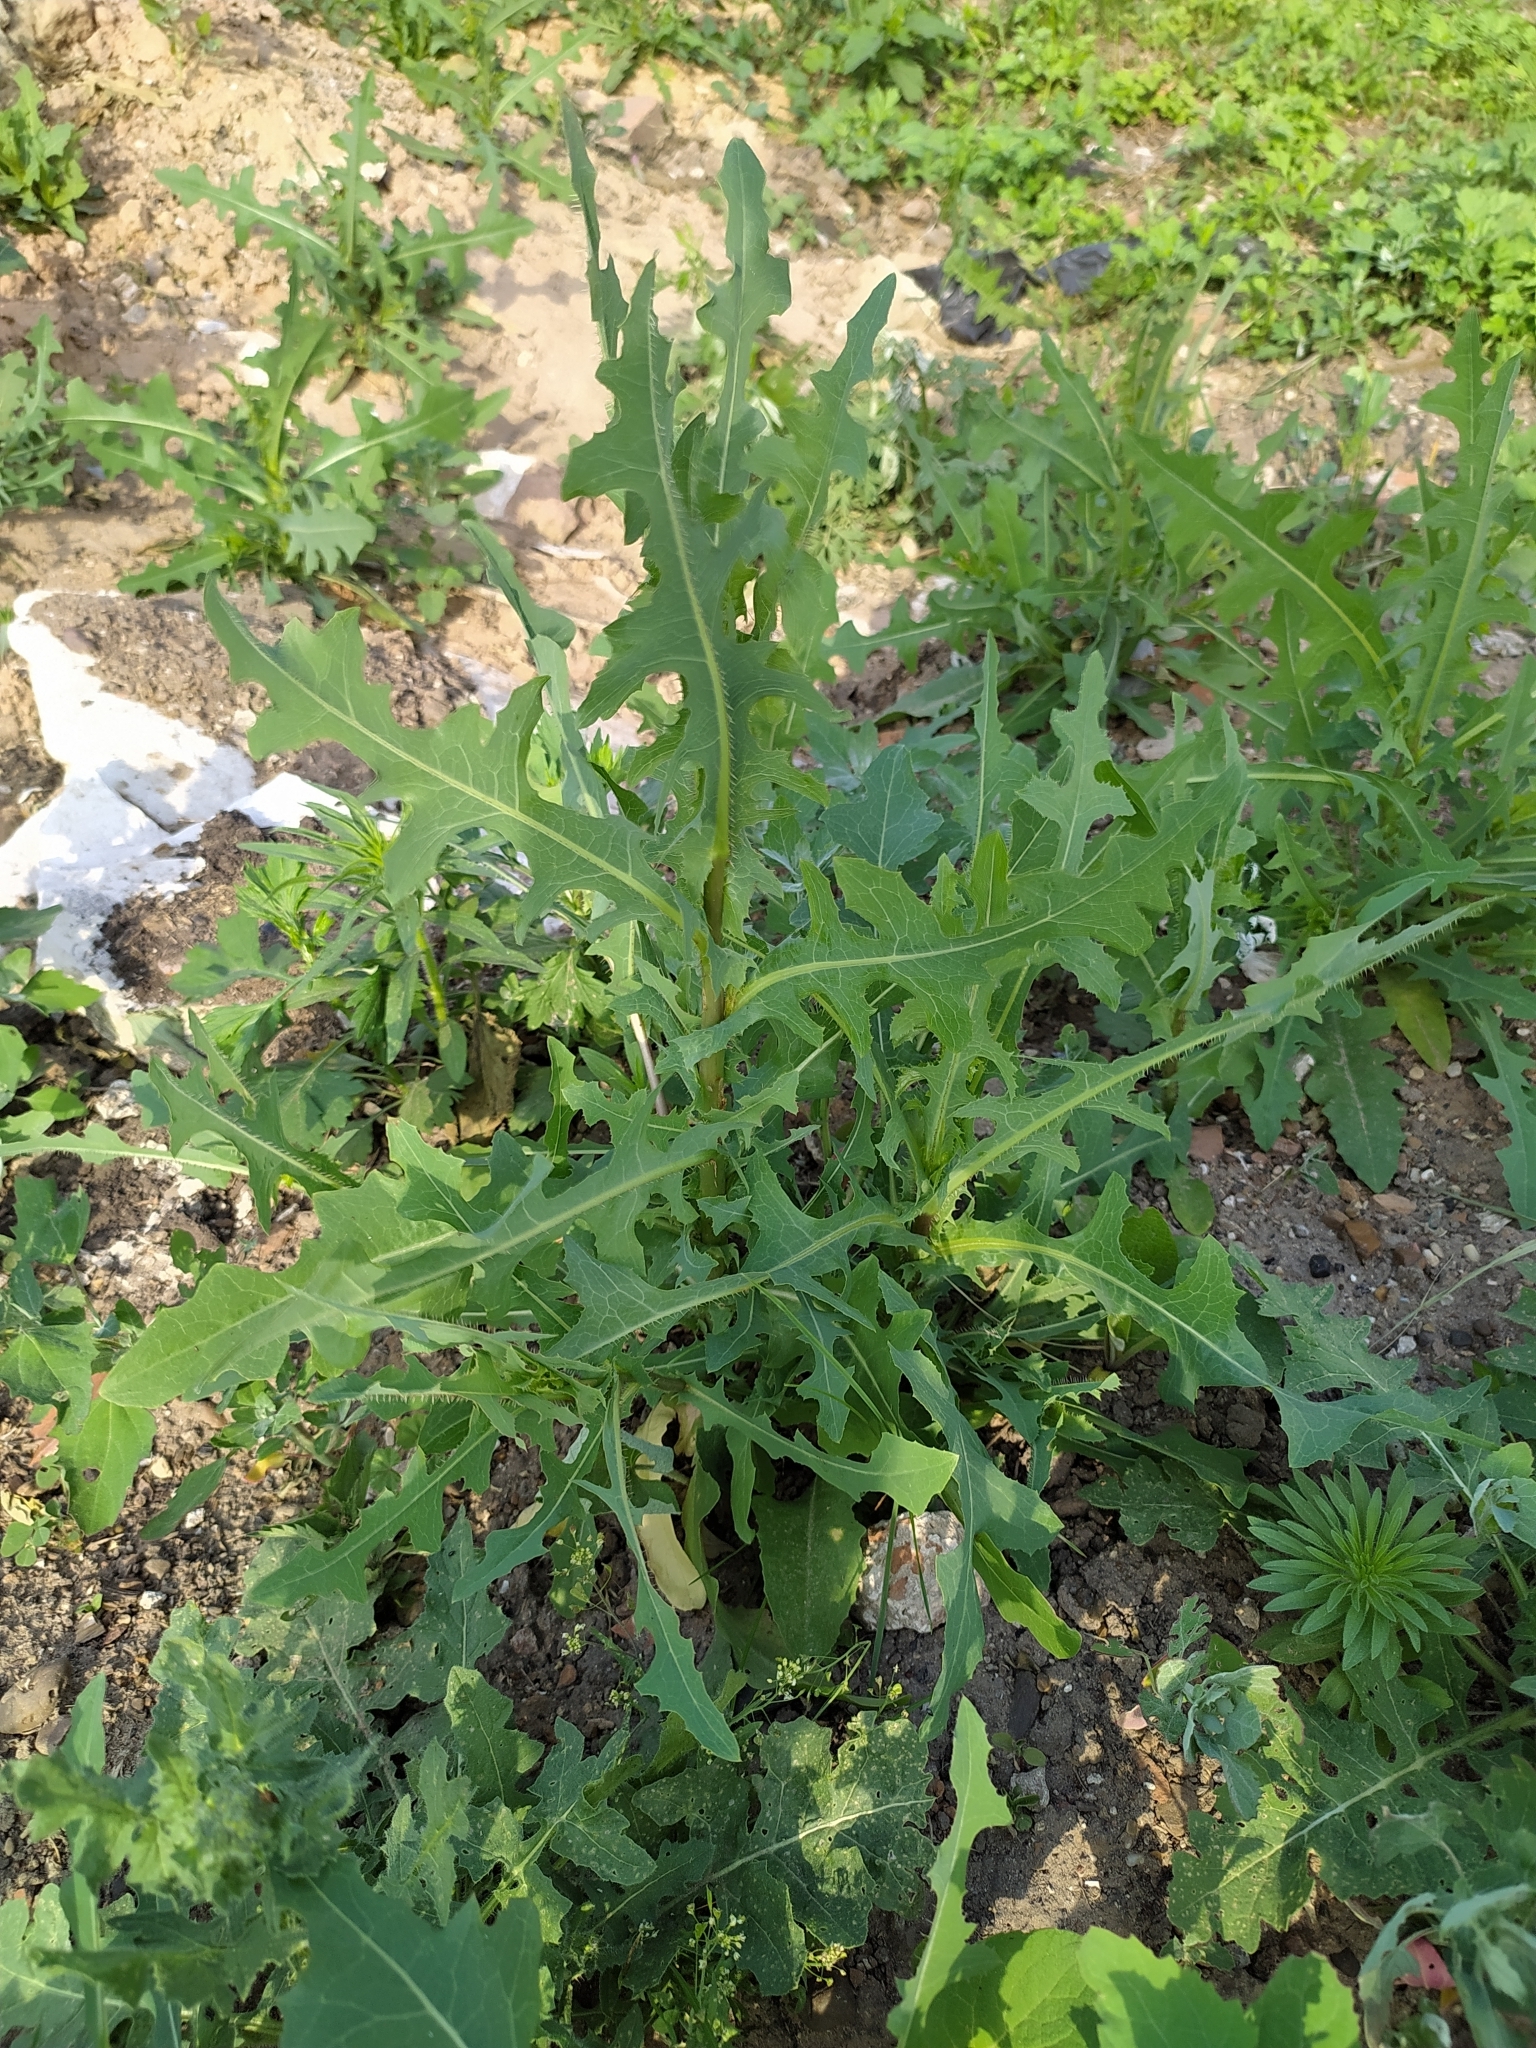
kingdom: Plantae
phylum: Tracheophyta
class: Magnoliopsida
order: Asterales
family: Asteraceae
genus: Lactuca
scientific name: Lactuca serriola
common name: Prickly lettuce
